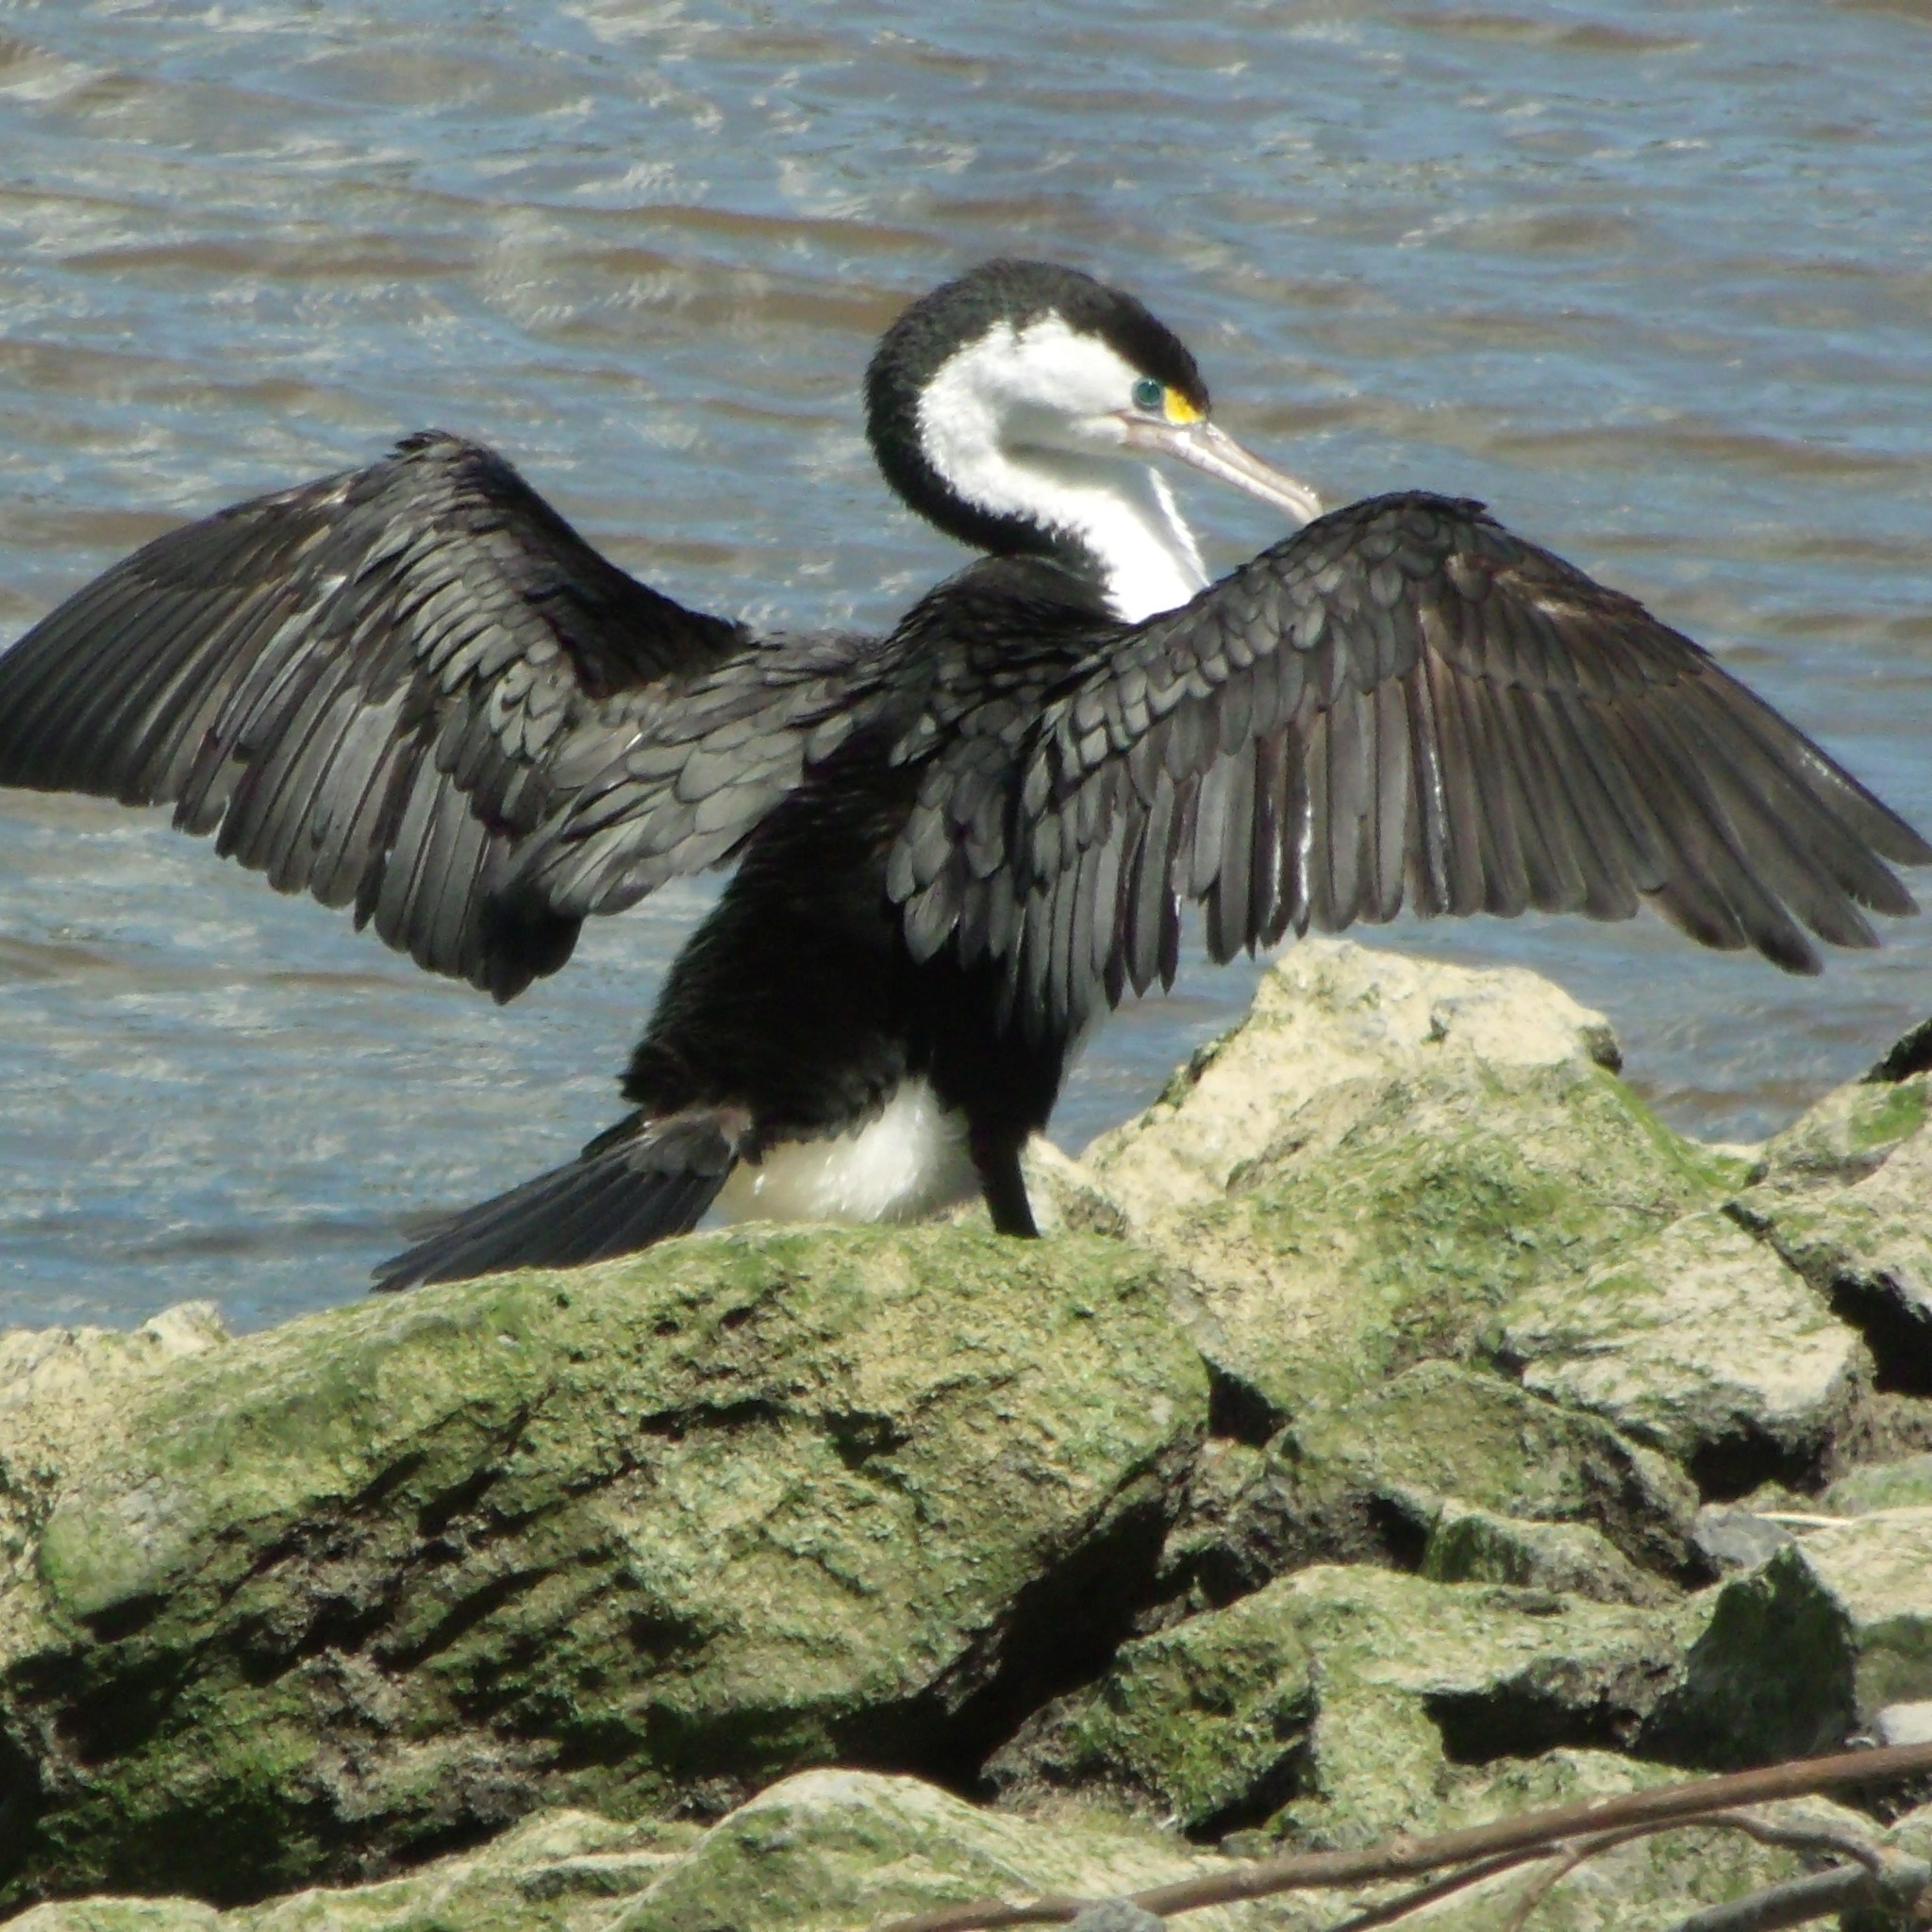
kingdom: Animalia
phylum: Chordata
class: Aves
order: Suliformes
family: Phalacrocoracidae
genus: Phalacrocorax
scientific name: Phalacrocorax varius
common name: Pied cormorant
